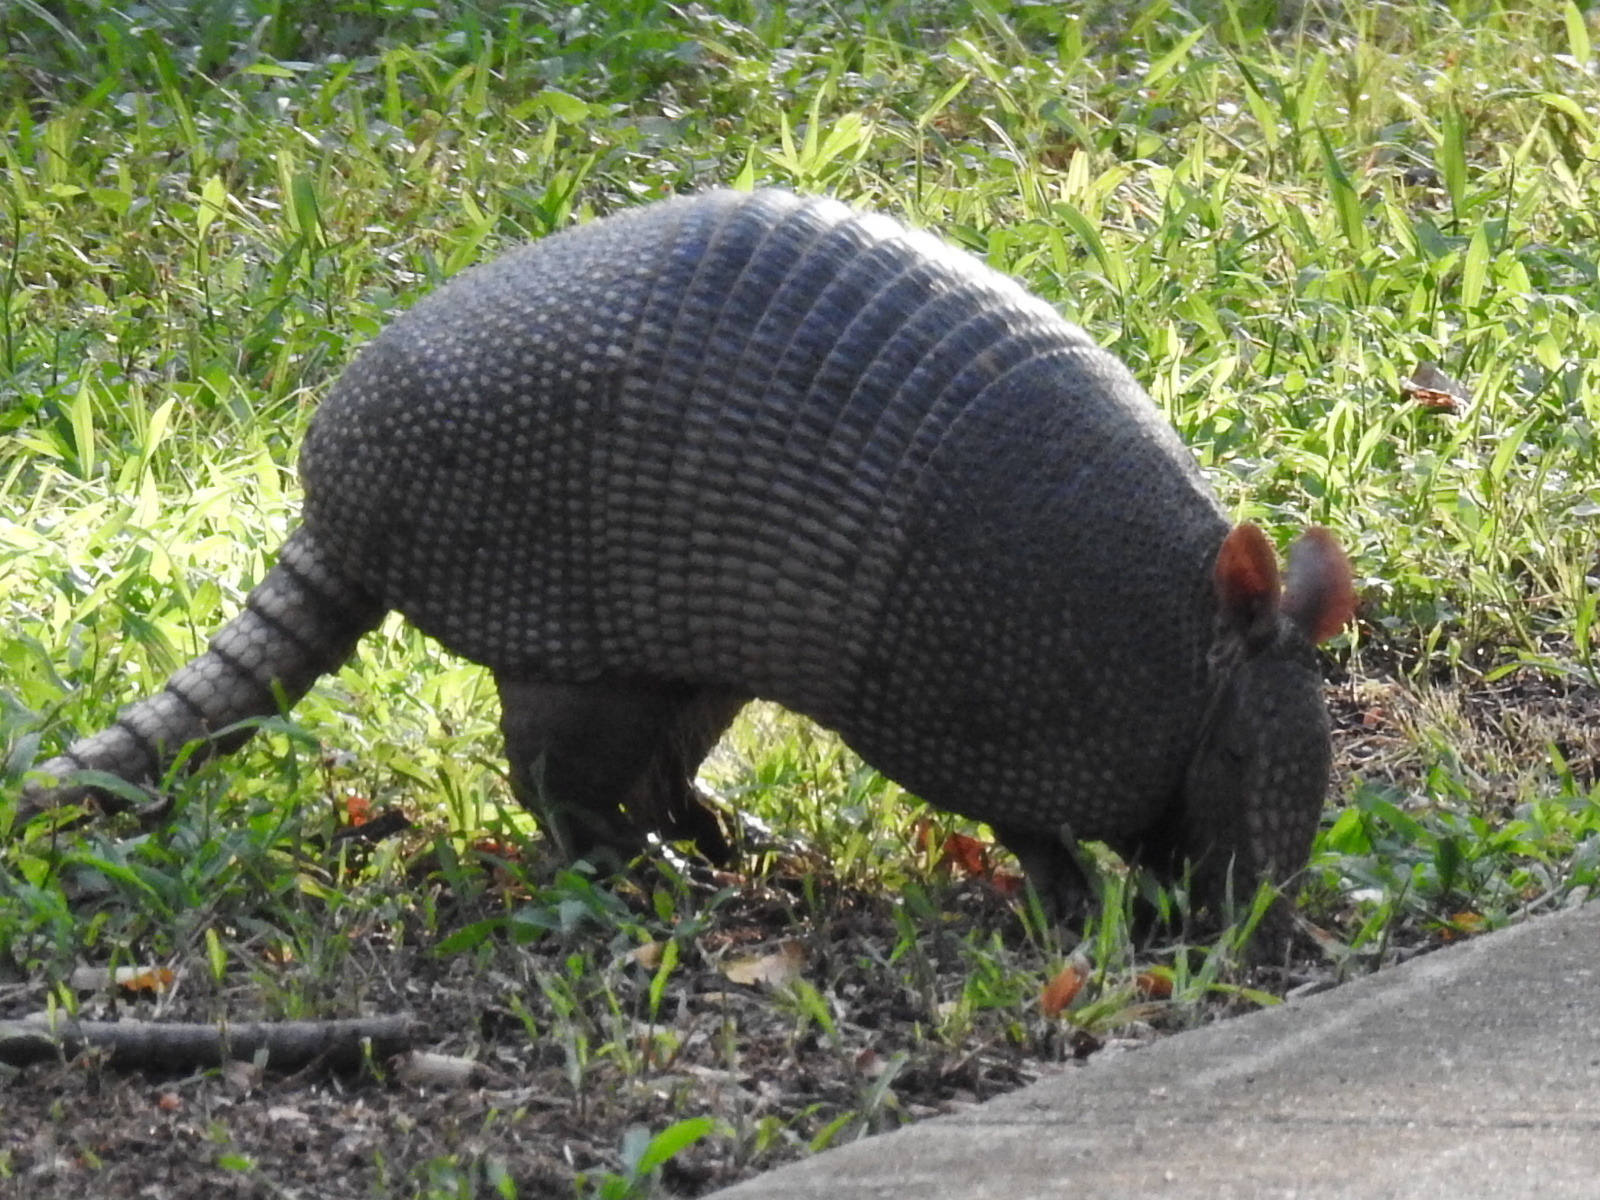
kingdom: Animalia
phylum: Chordata
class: Mammalia
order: Cingulata
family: Dasypodidae
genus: Dasypus
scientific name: Dasypus novemcinctus
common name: Nine-banded armadillo
